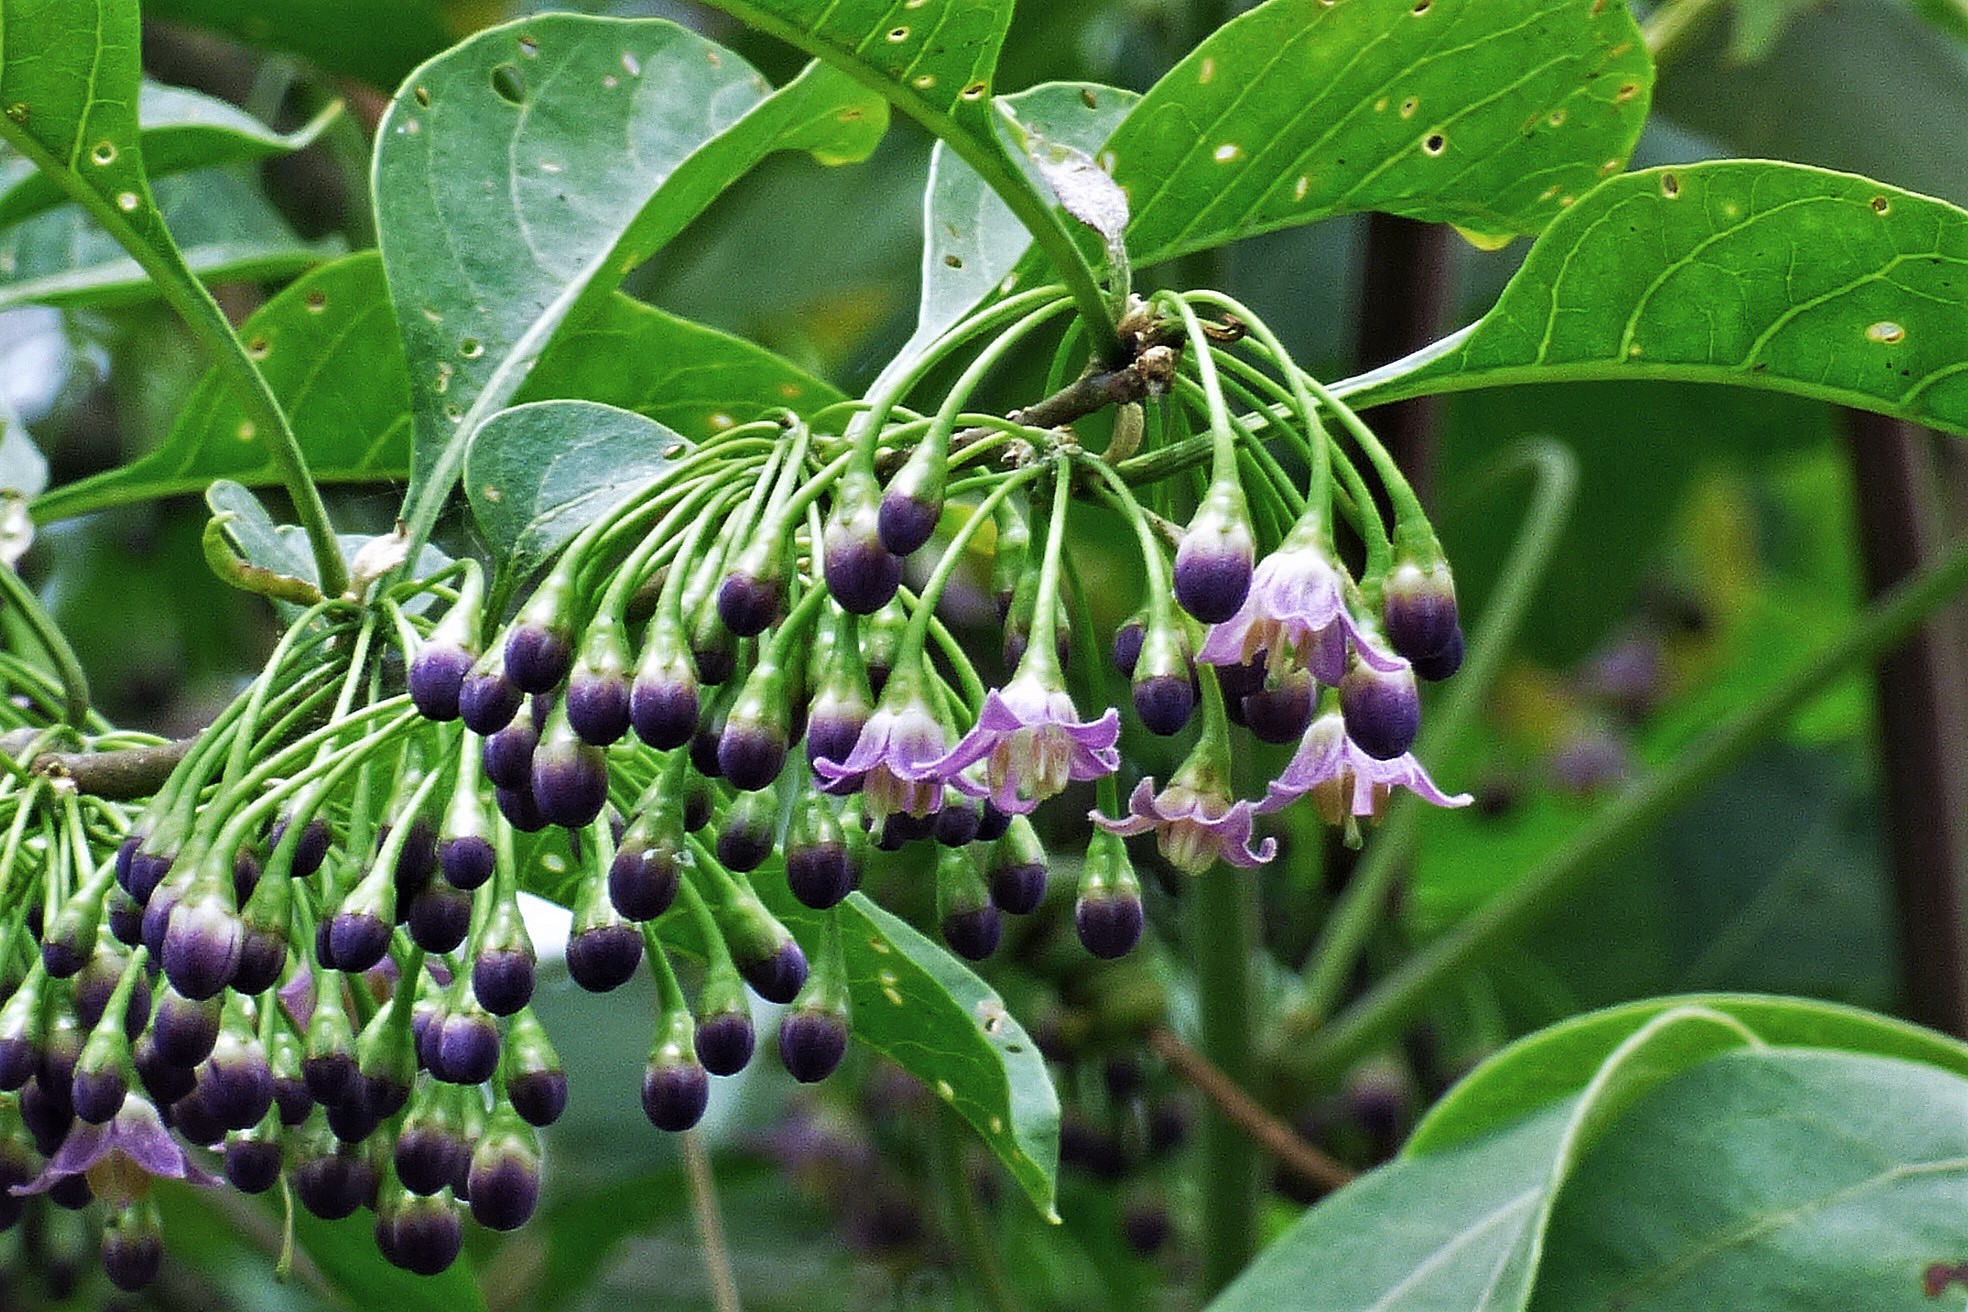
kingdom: Plantae
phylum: Tracheophyta
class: Magnoliopsida
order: Solanales
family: Solanaceae
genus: Vassobia
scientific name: Vassobia breviflora
